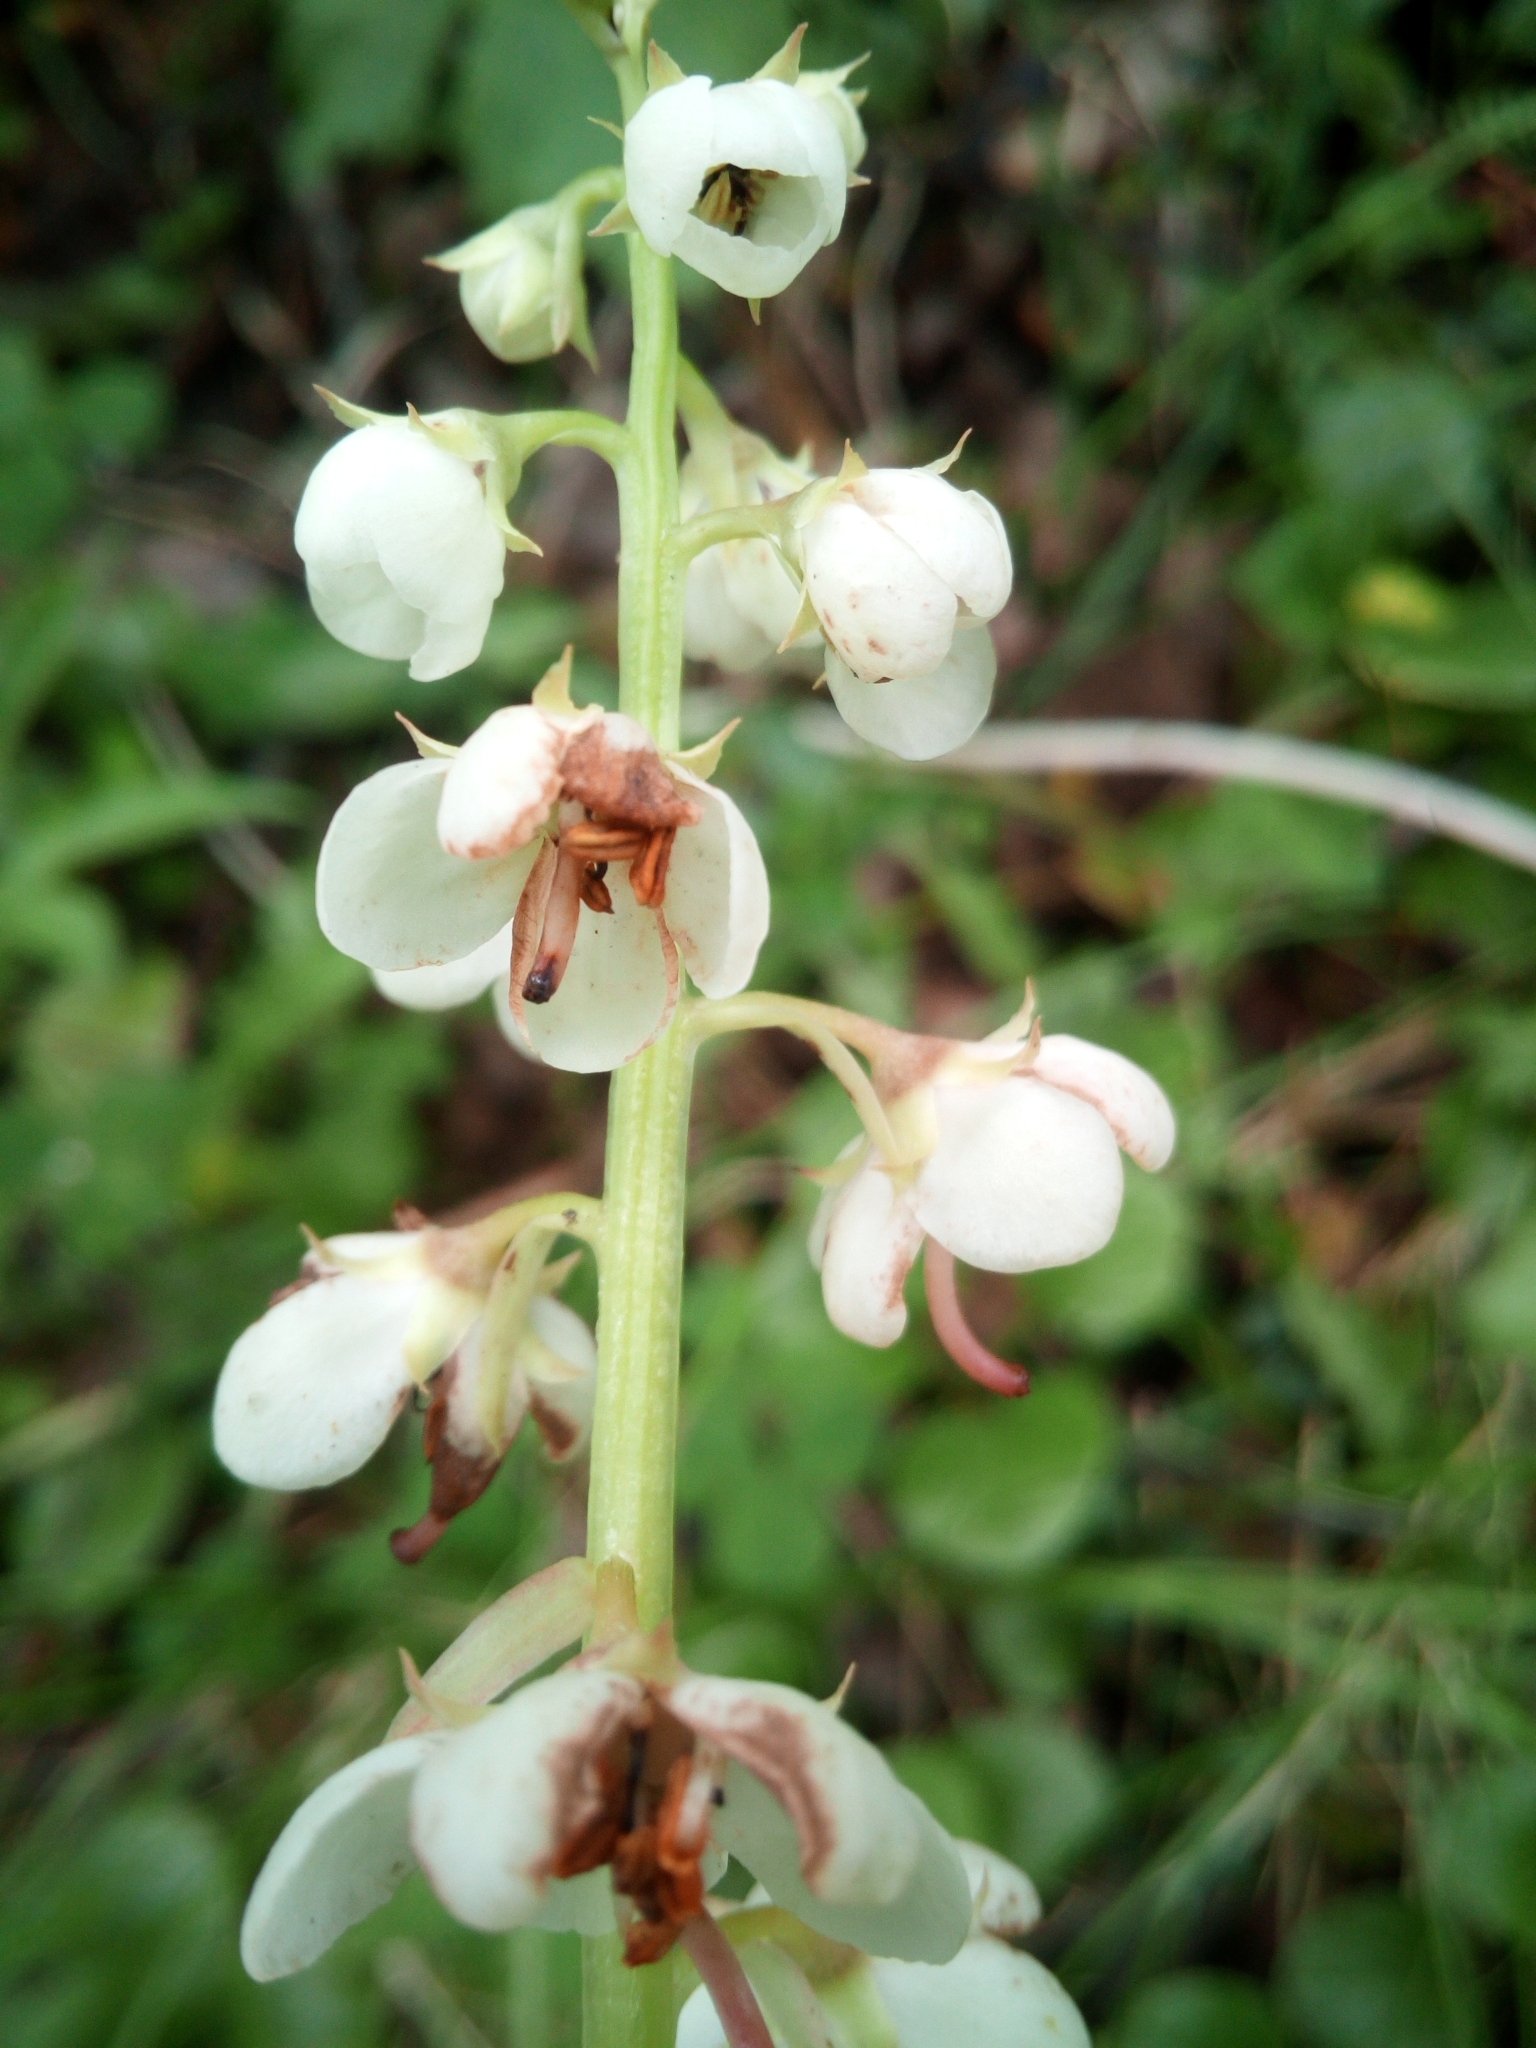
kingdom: Plantae
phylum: Tracheophyta
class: Magnoliopsida
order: Ericales
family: Ericaceae
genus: Pyrola
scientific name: Pyrola rotundifolia
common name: Round-leaved wintergreen
